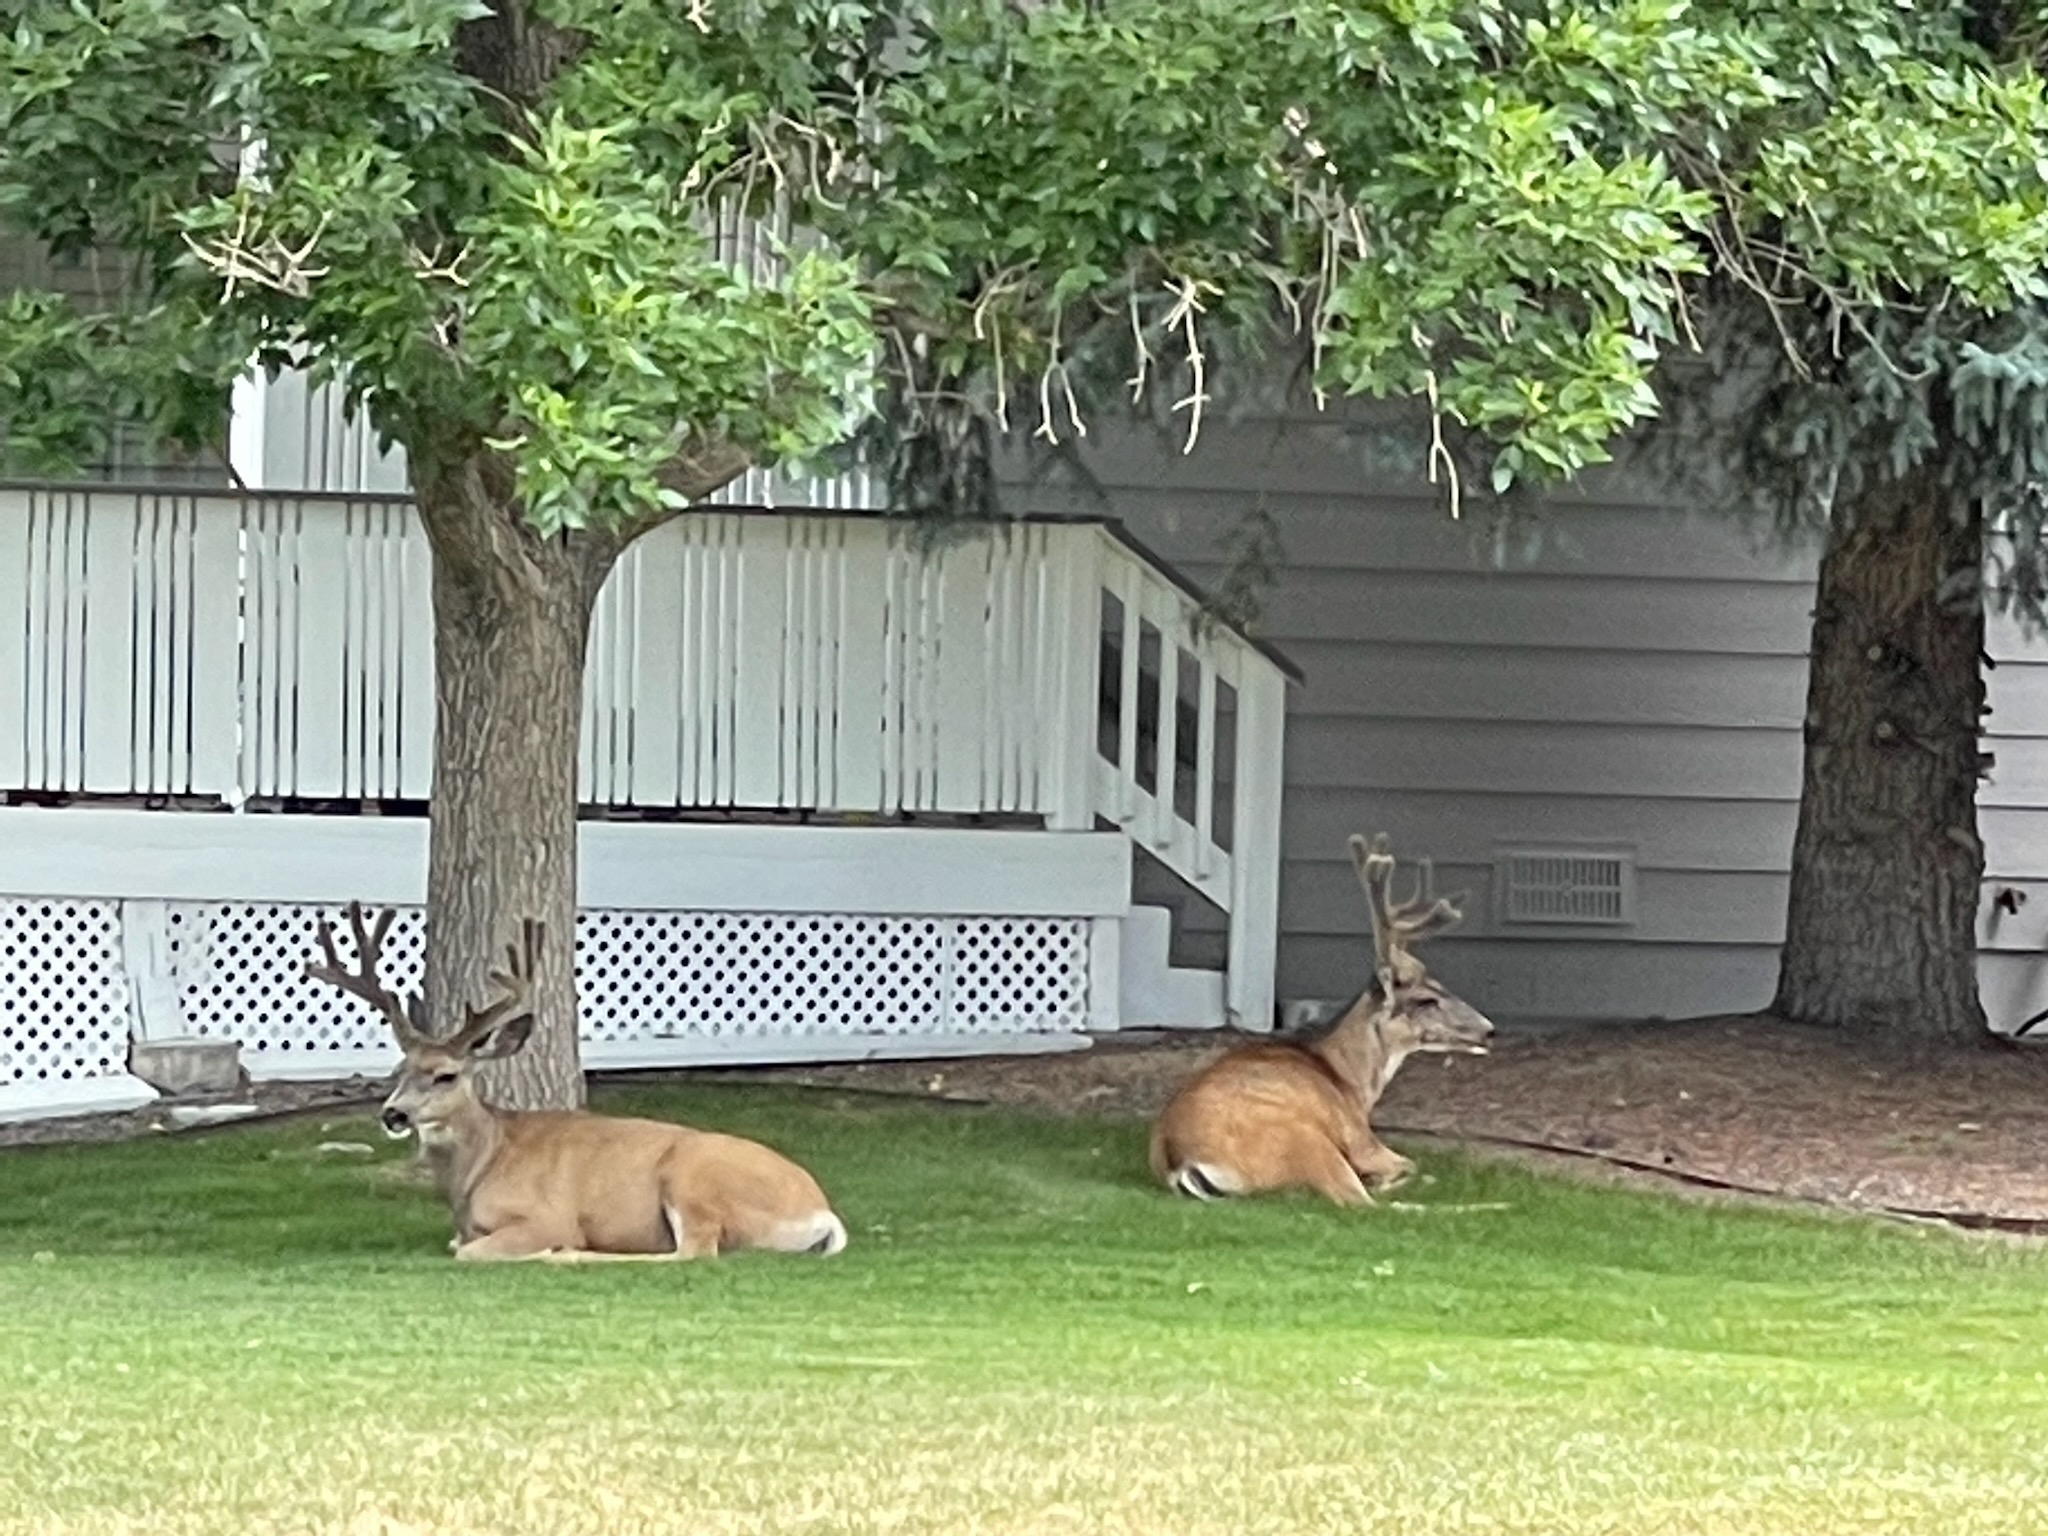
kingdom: Animalia
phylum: Chordata
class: Mammalia
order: Artiodactyla
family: Cervidae
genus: Odocoileus
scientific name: Odocoileus hemionus
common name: Mule deer
